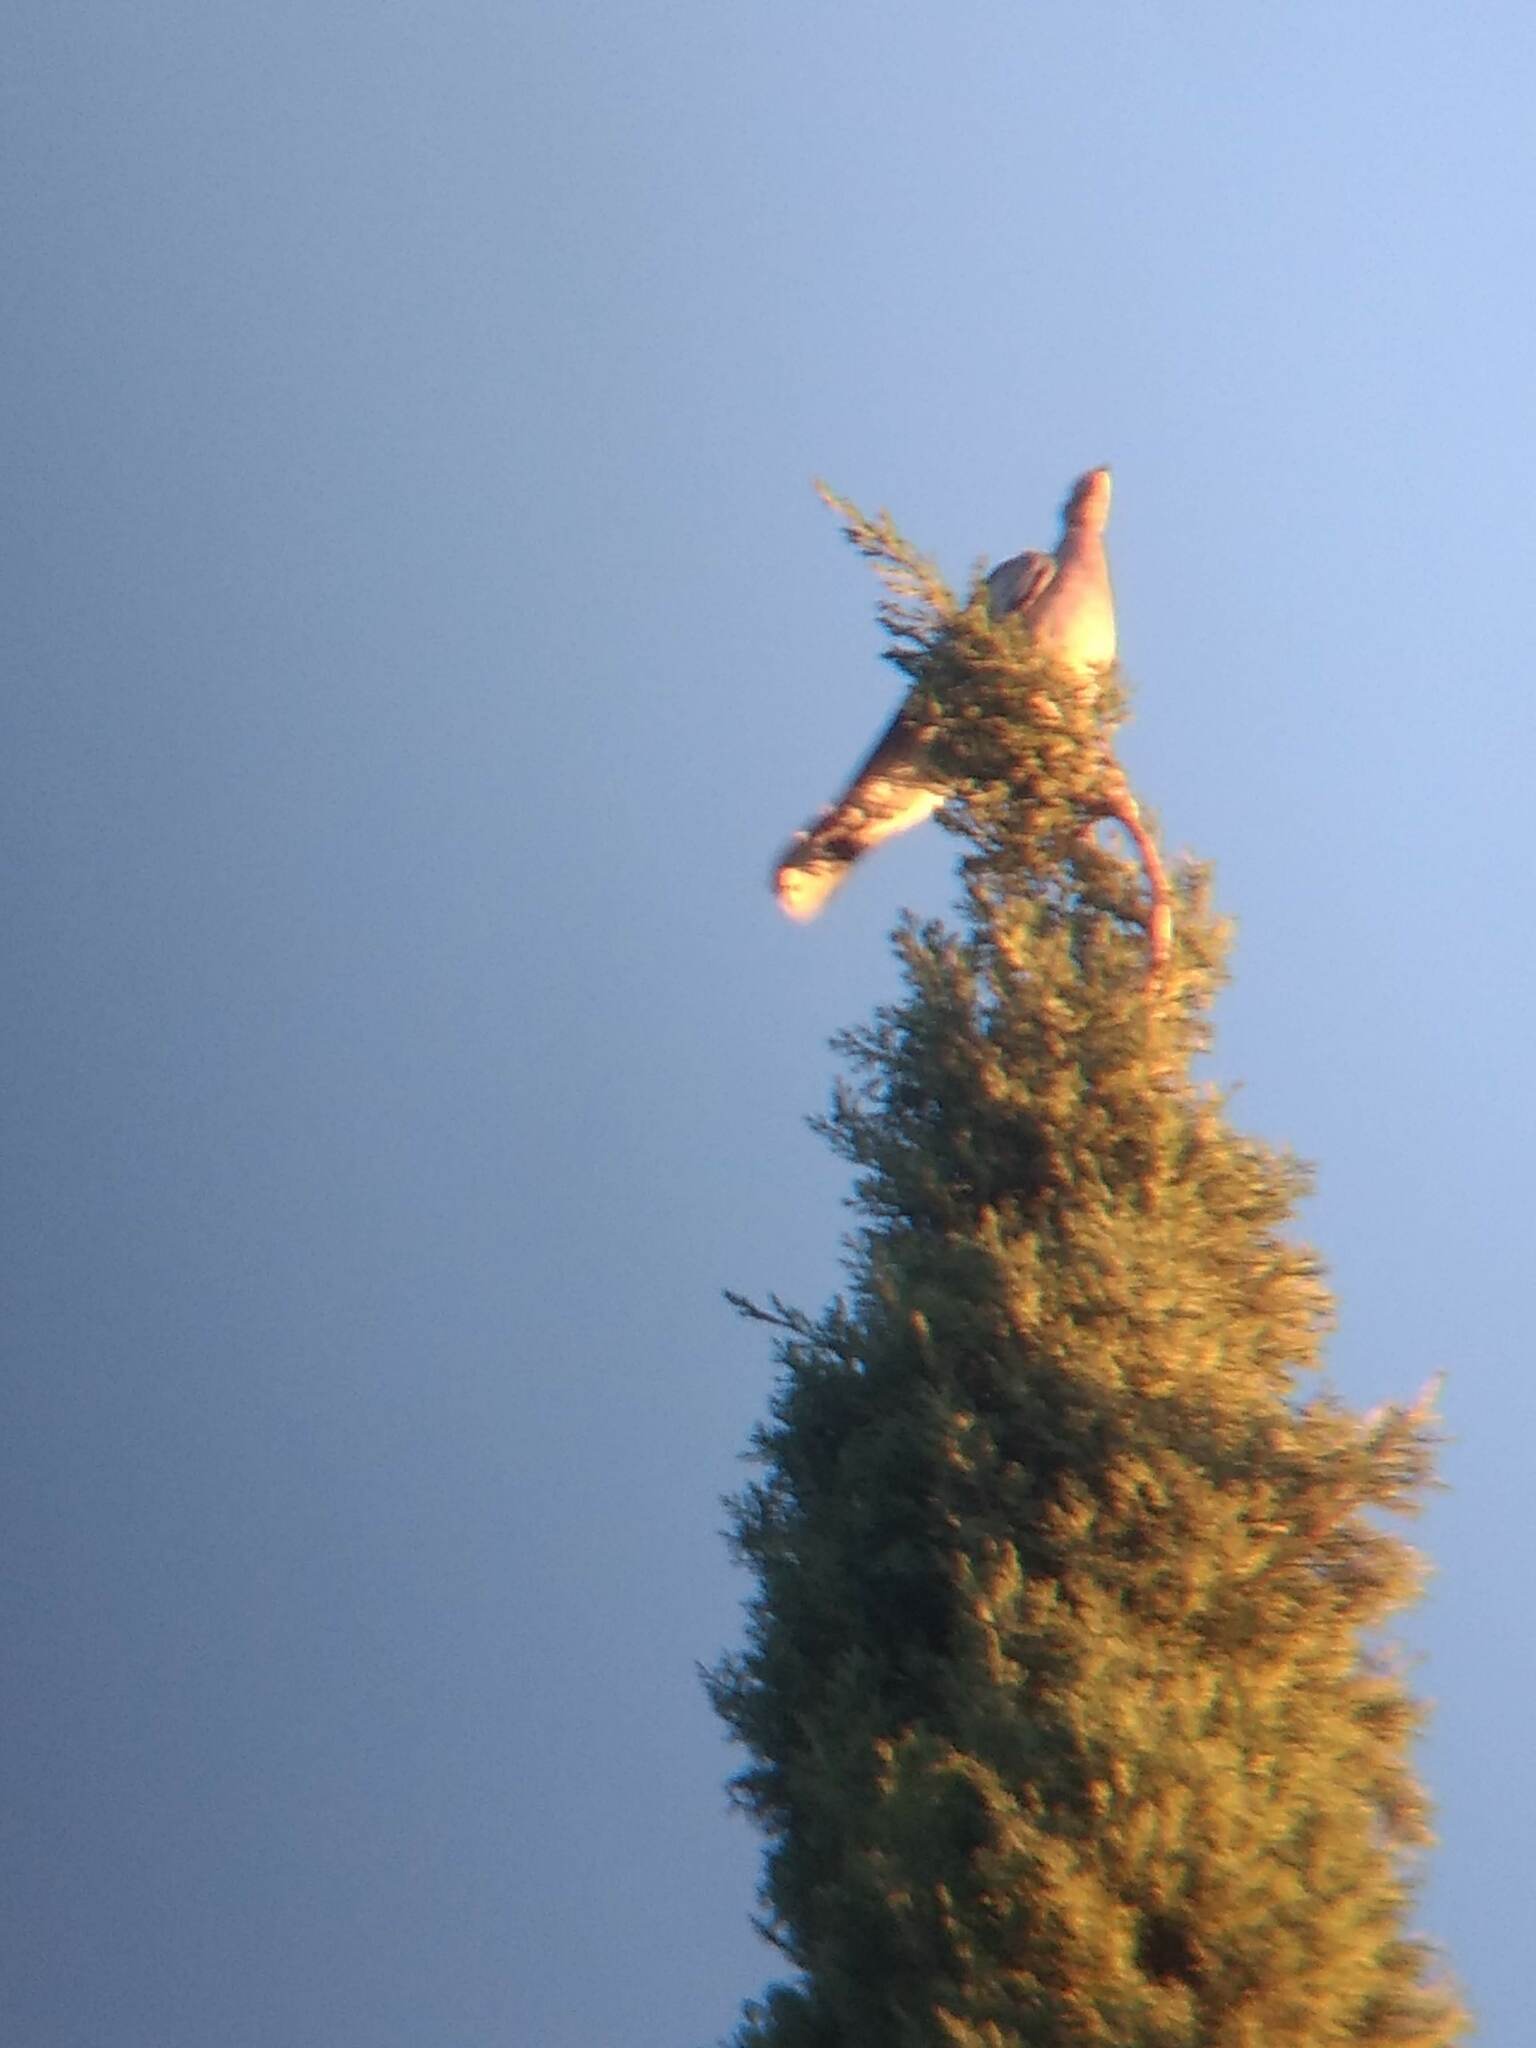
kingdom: Animalia
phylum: Chordata
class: Aves
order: Columbiformes
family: Columbidae
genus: Patagioenas
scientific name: Patagioenas fasciata
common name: Band-tailed pigeon
